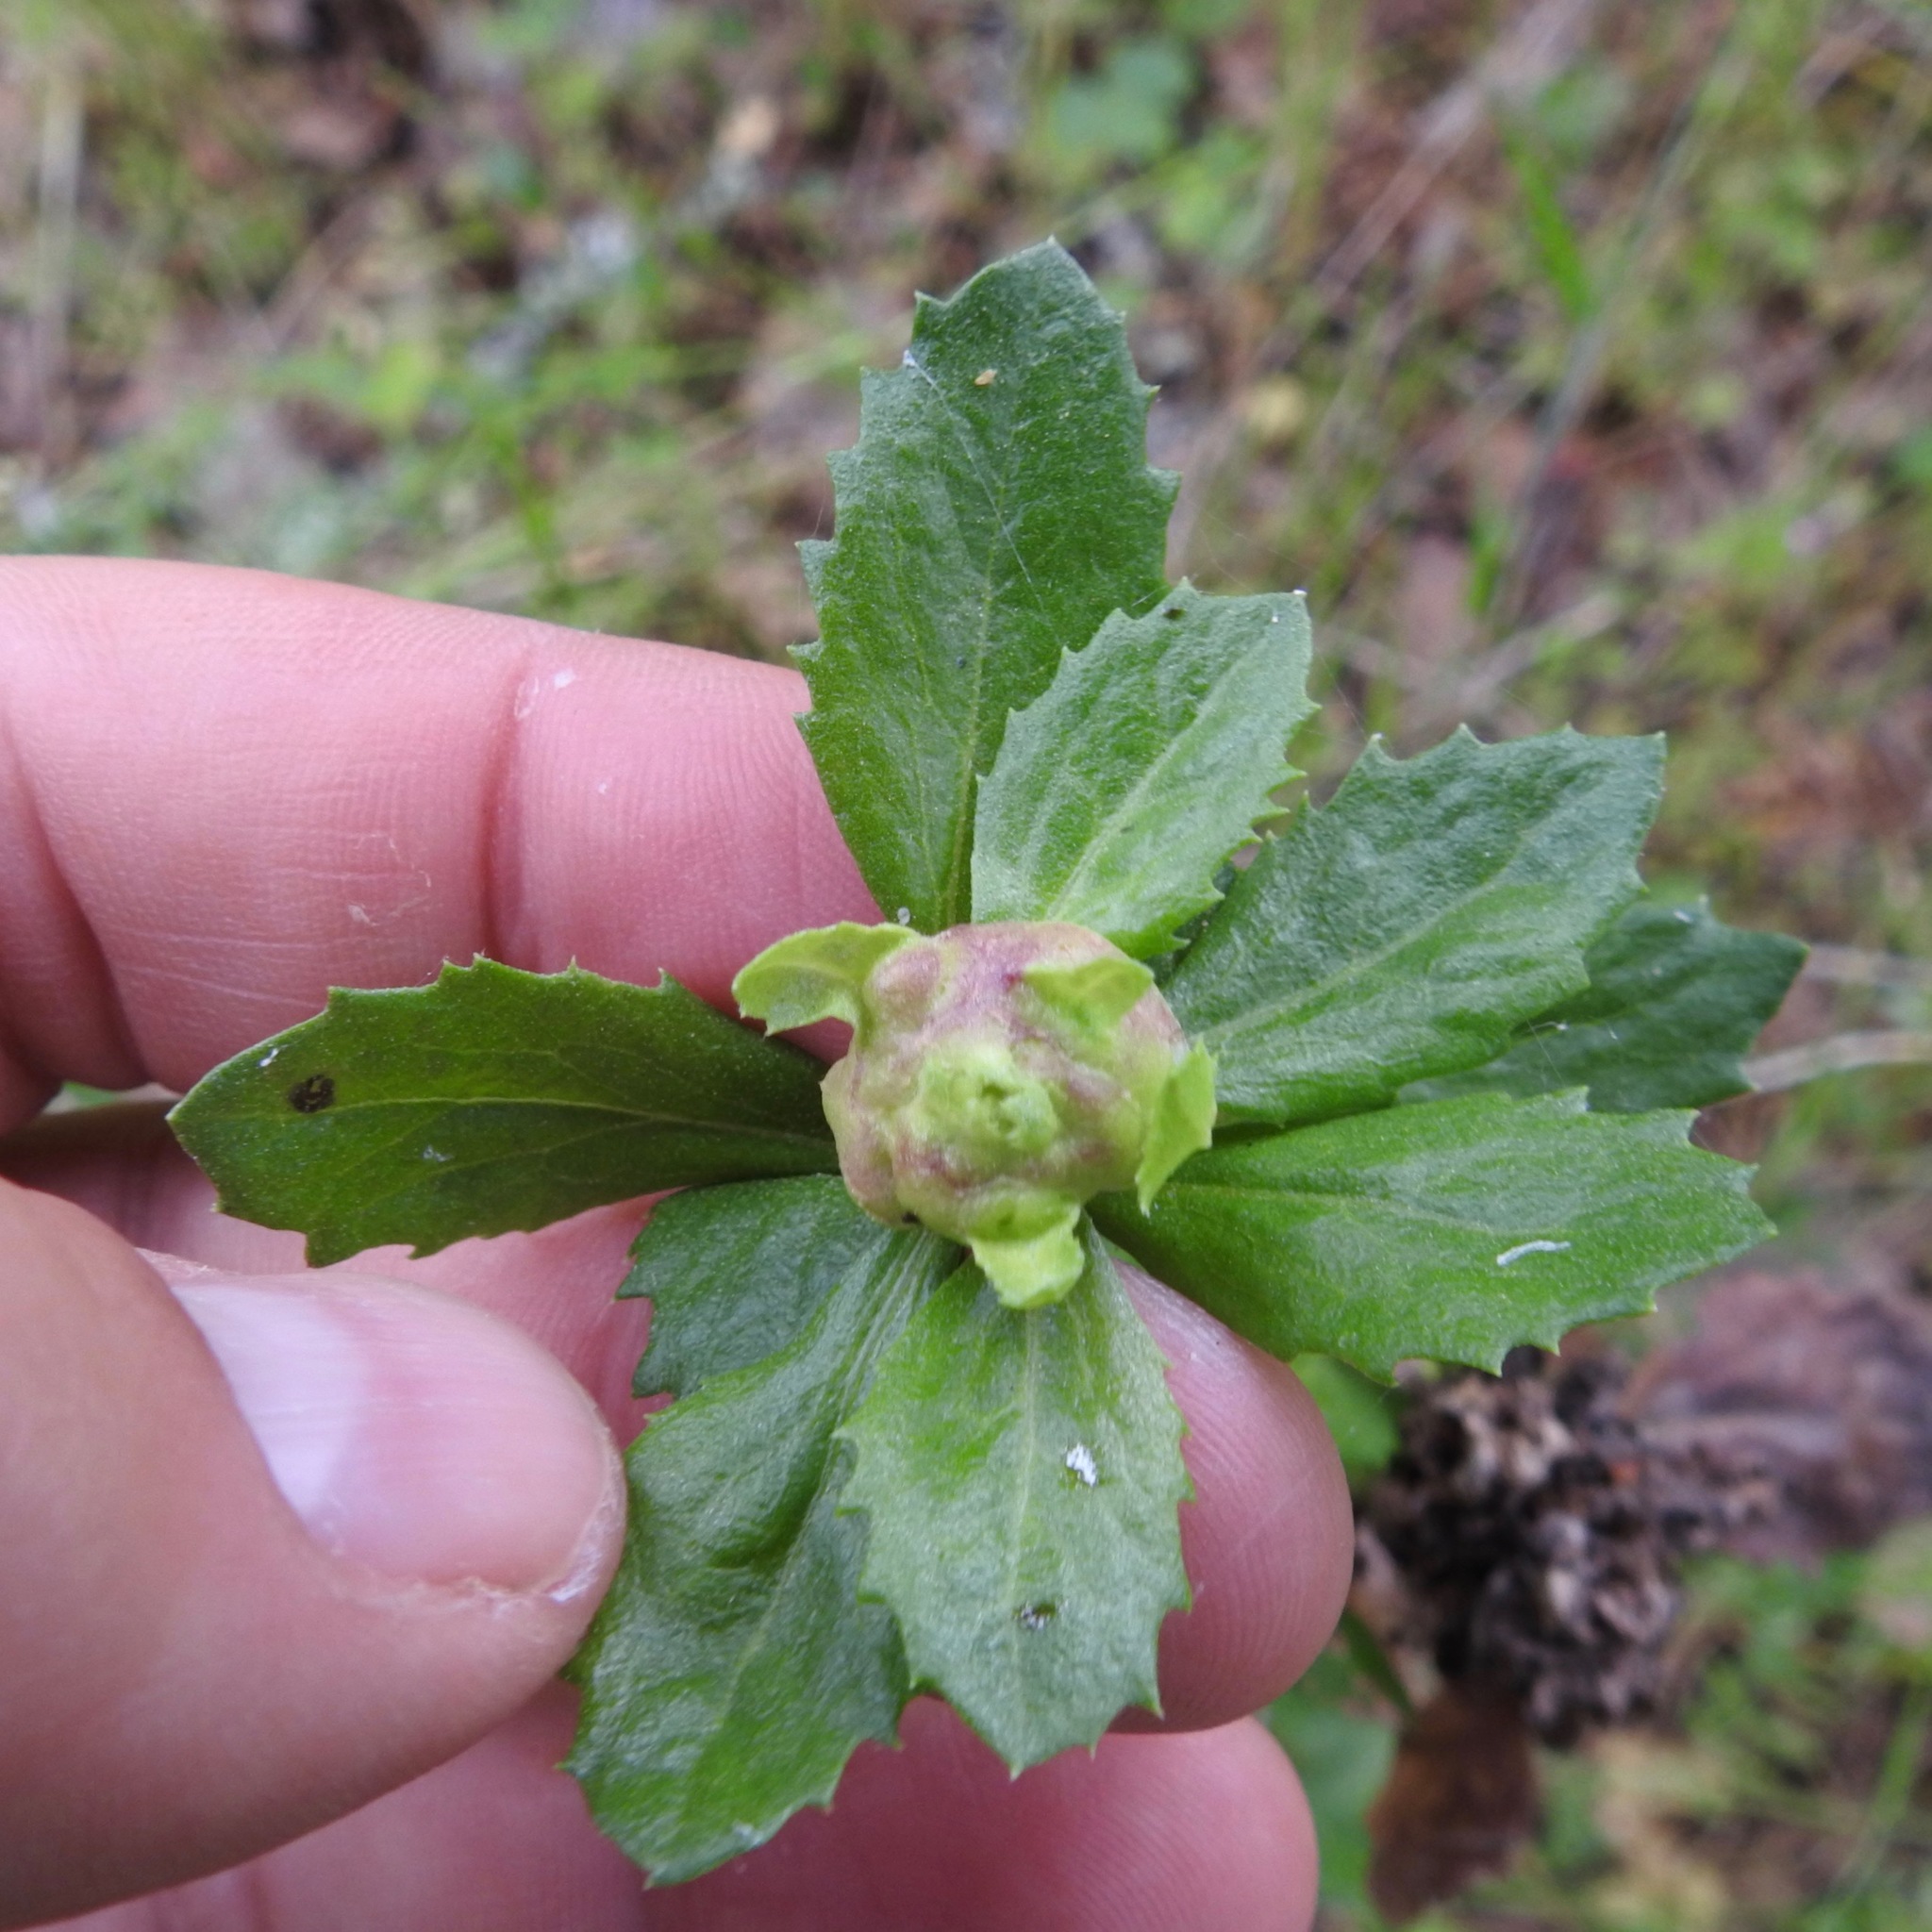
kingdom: Animalia
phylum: Arthropoda
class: Insecta
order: Diptera
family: Cecidomyiidae
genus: Rhopalomyia
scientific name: Rhopalomyia californica
